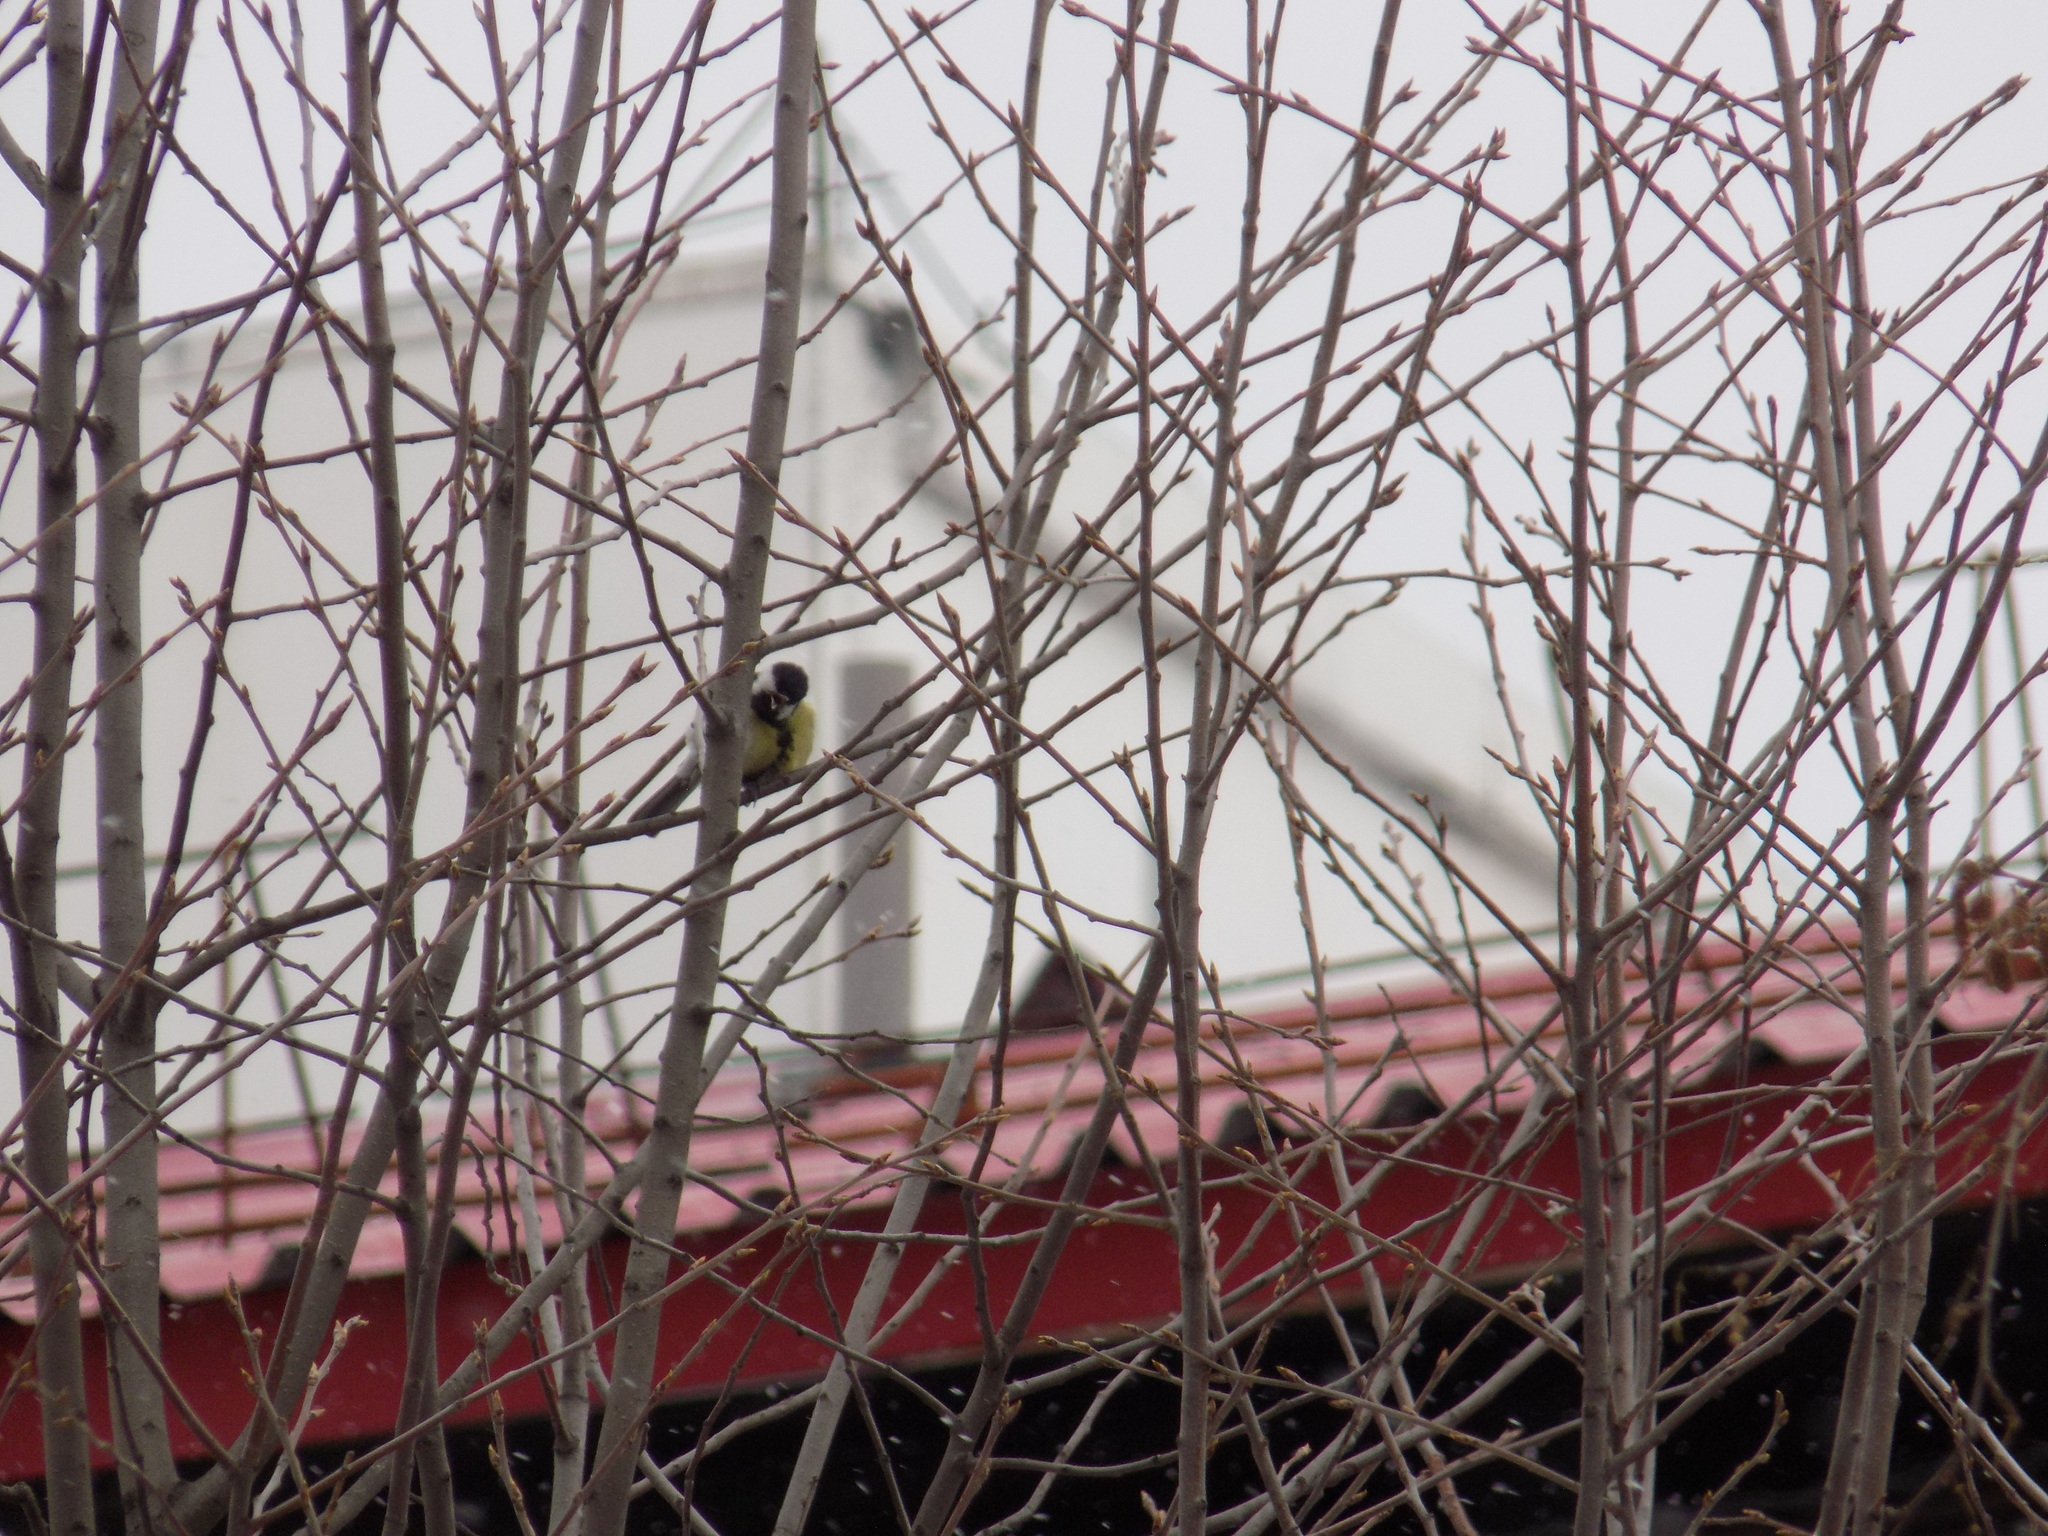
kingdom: Animalia
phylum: Chordata
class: Aves
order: Passeriformes
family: Paridae
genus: Parus
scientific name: Parus major
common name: Great tit
